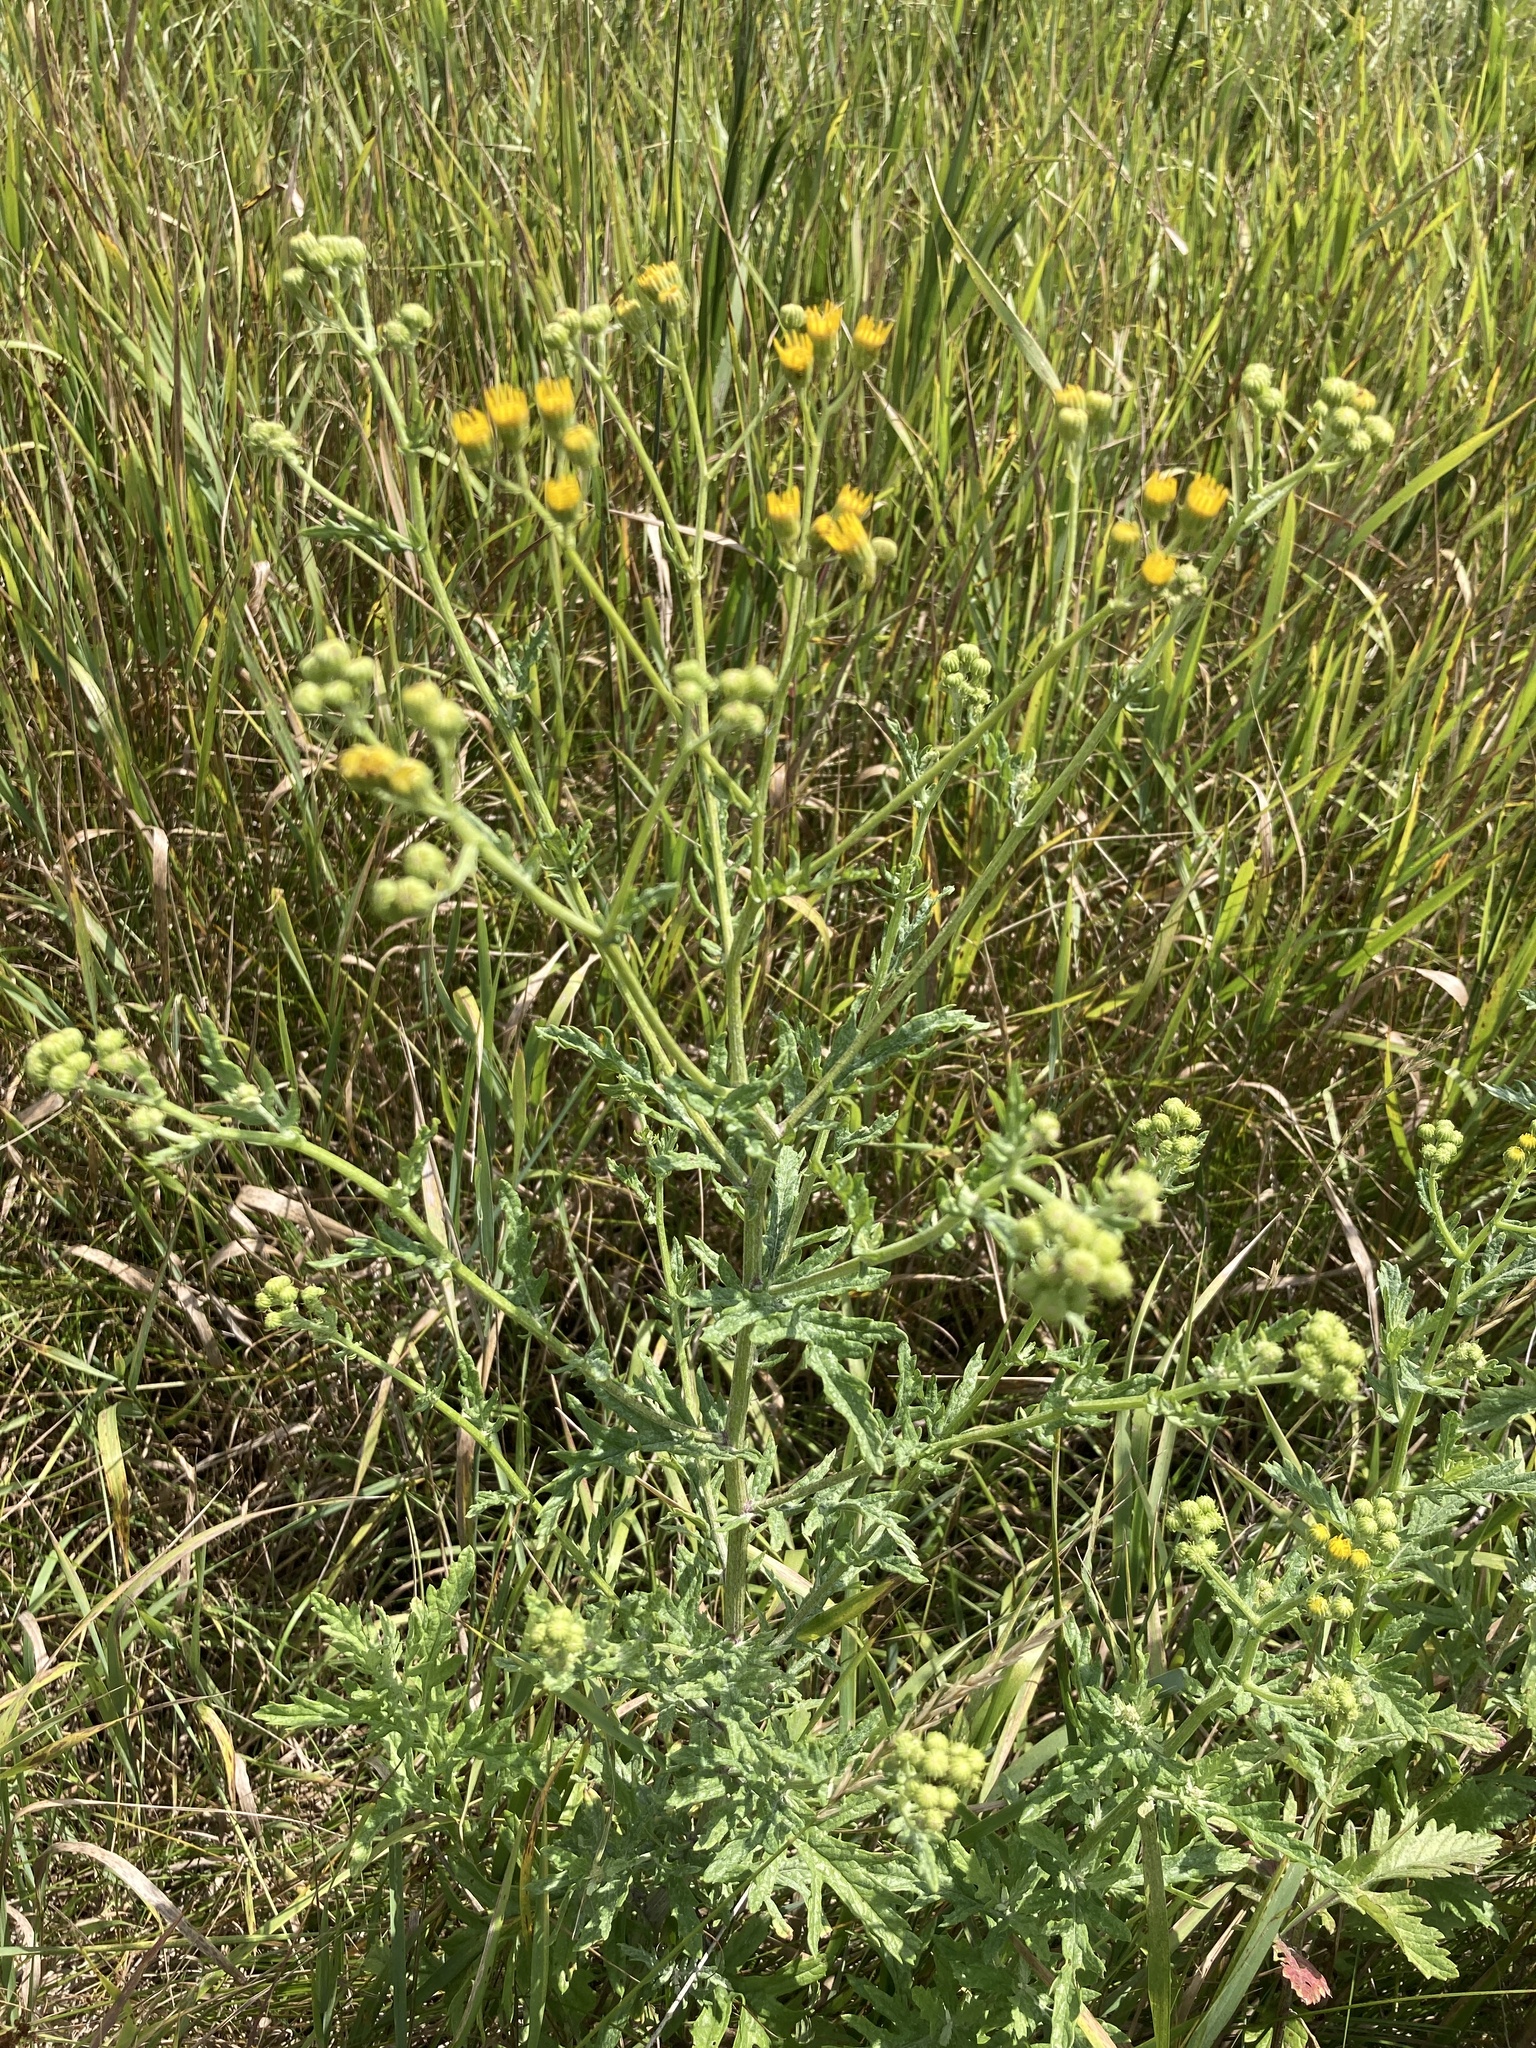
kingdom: Plantae
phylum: Tracheophyta
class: Magnoliopsida
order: Asterales
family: Asteraceae
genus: Jacobaea
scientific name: Jacobaea erucifolia
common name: Hoary ragwort
